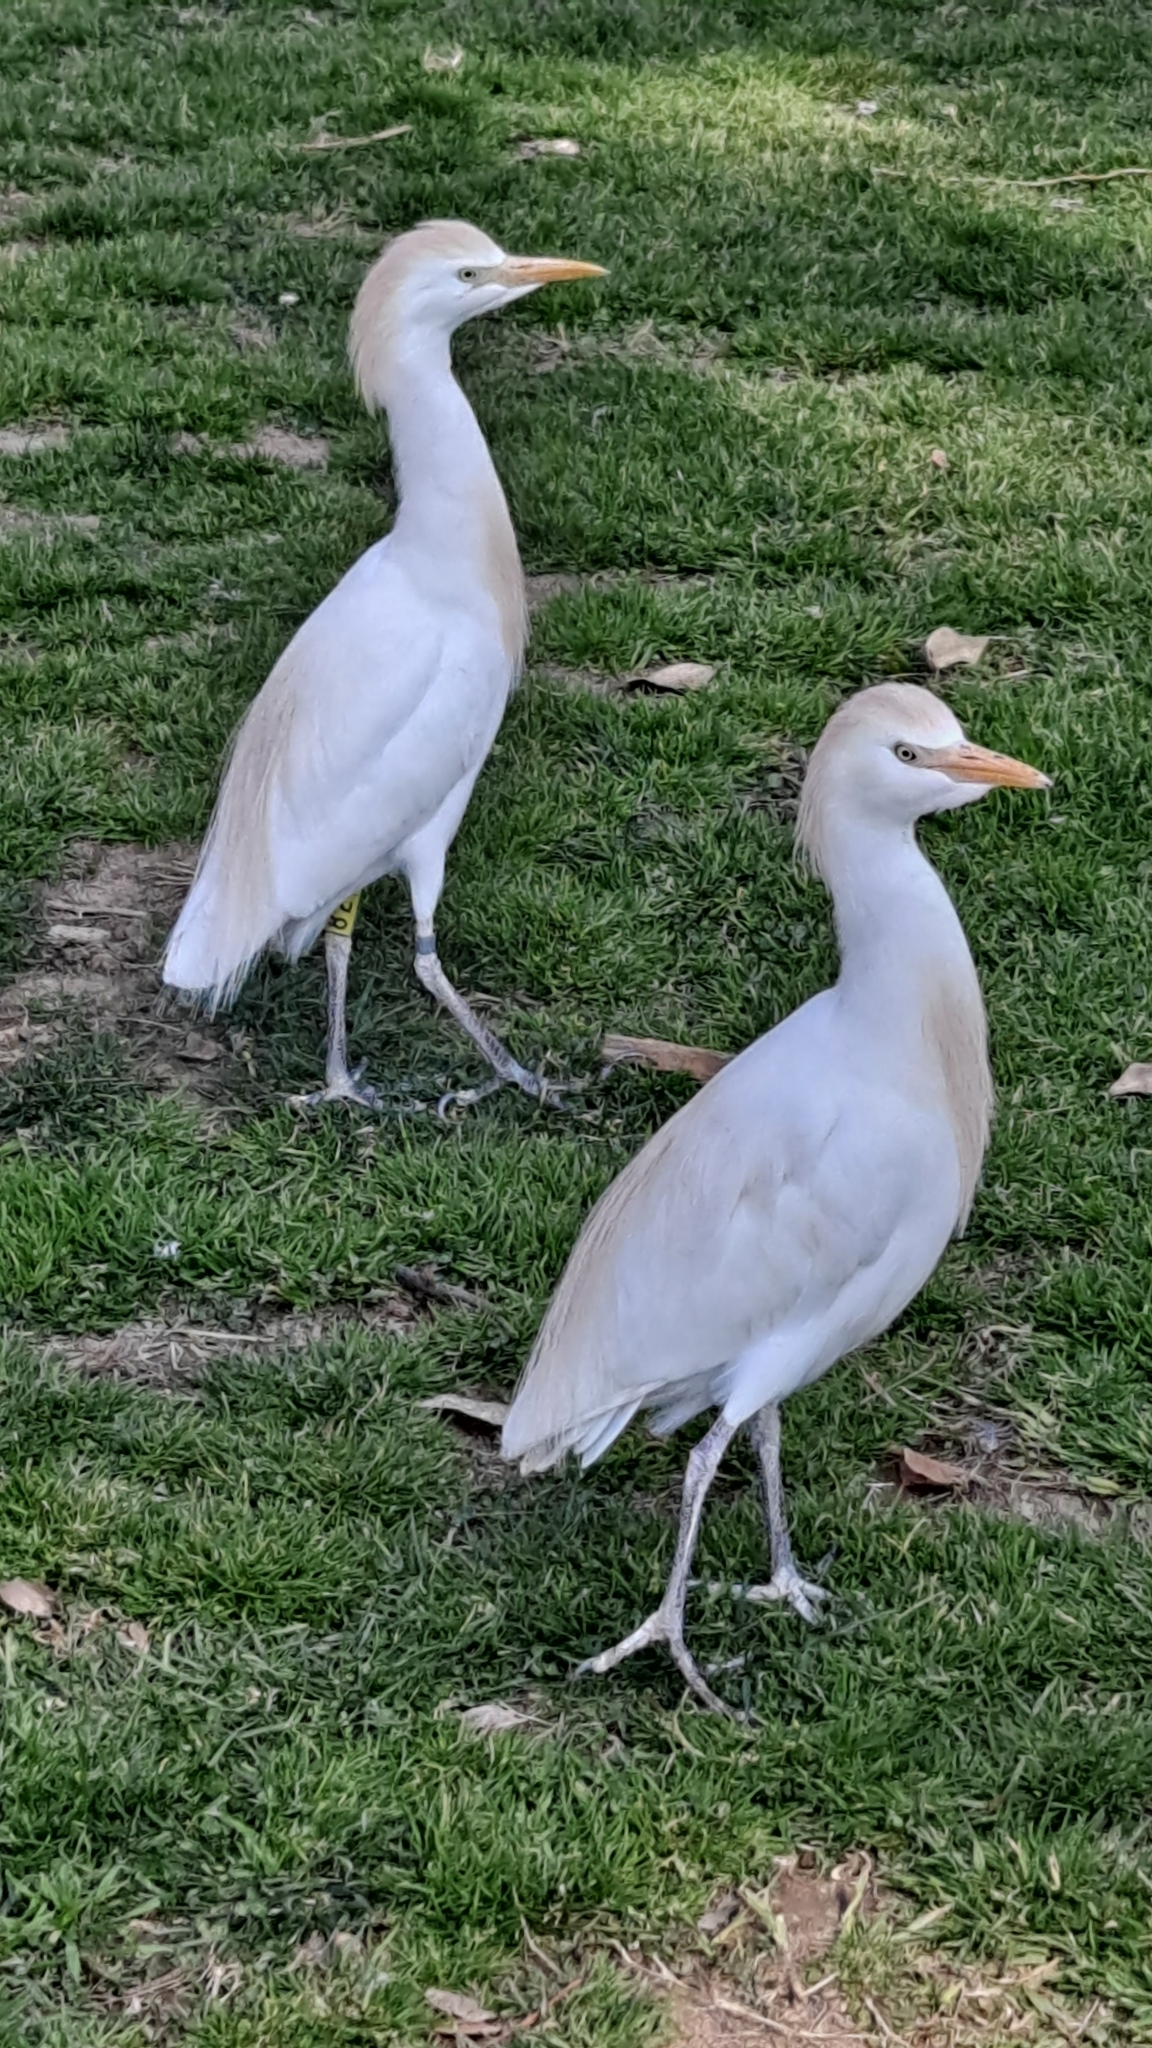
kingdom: Animalia
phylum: Chordata
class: Aves
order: Pelecaniformes
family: Ardeidae
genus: Bubulcus
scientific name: Bubulcus ibis
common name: Cattle egret
